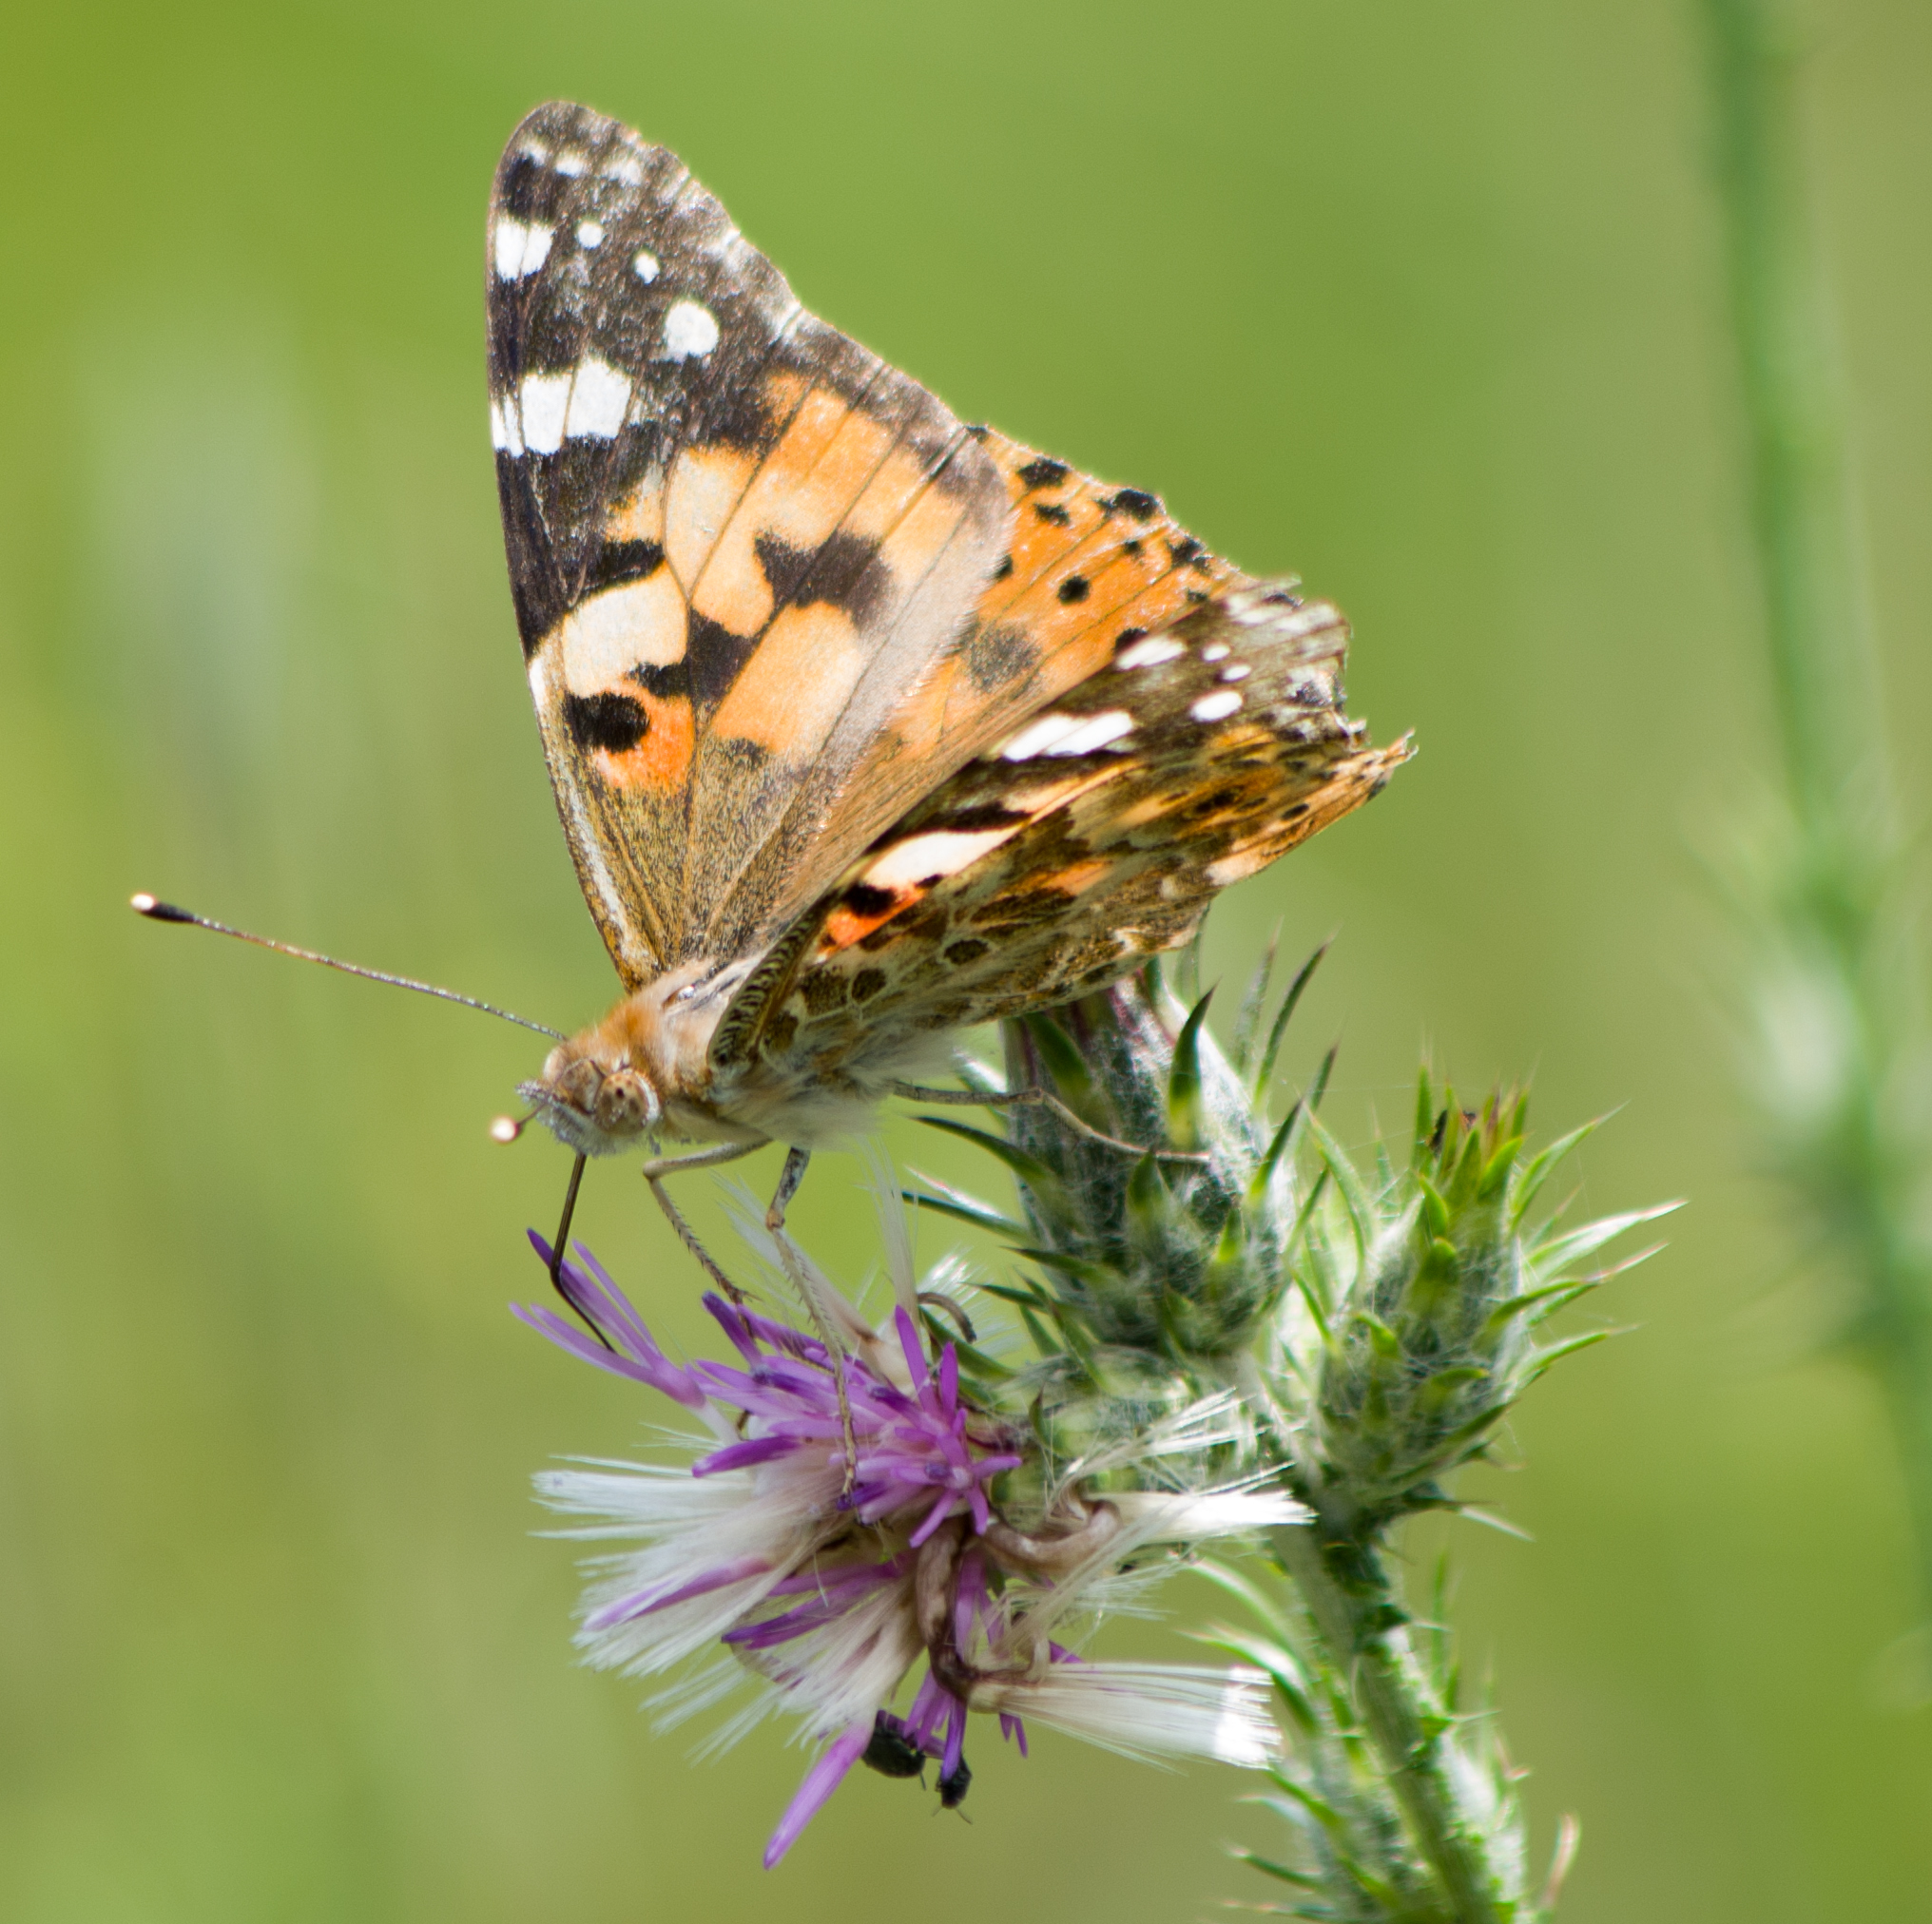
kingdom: Animalia
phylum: Arthropoda
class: Insecta
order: Lepidoptera
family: Nymphalidae
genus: Vanessa
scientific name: Vanessa cardui
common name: Painted lady
